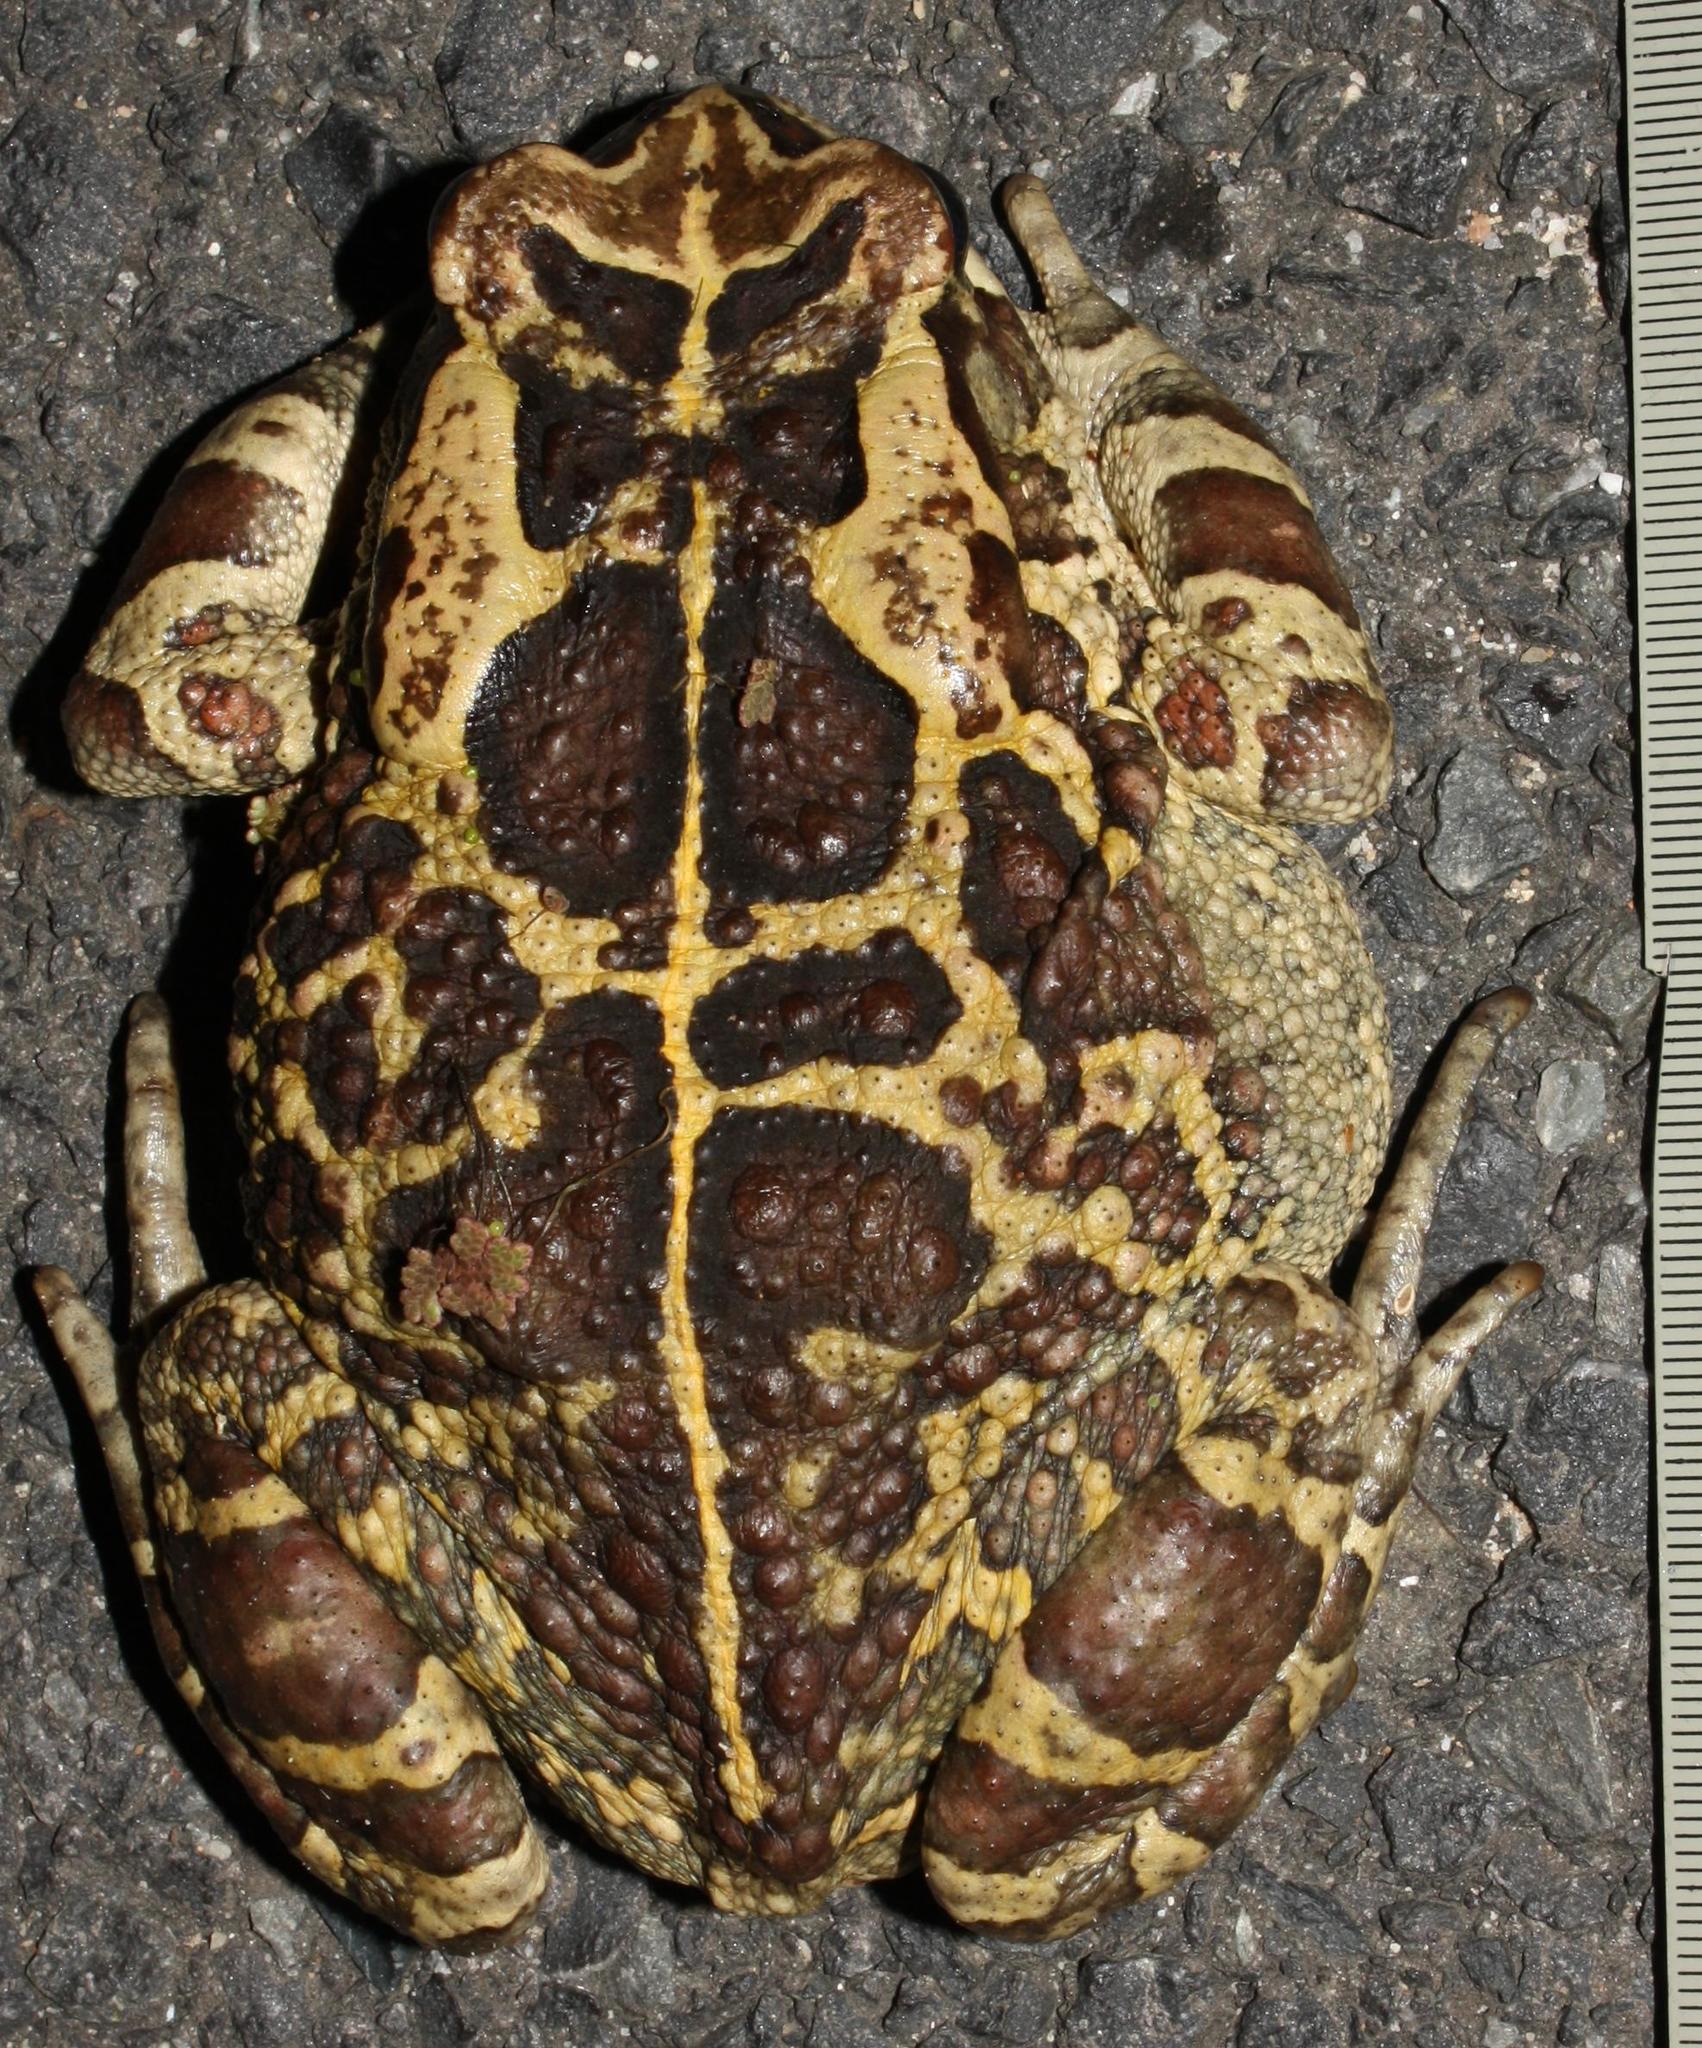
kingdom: Animalia
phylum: Chordata
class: Amphibia
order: Anura
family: Bufonidae
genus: Sclerophrys
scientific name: Sclerophrys pantherina
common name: Panther toad
